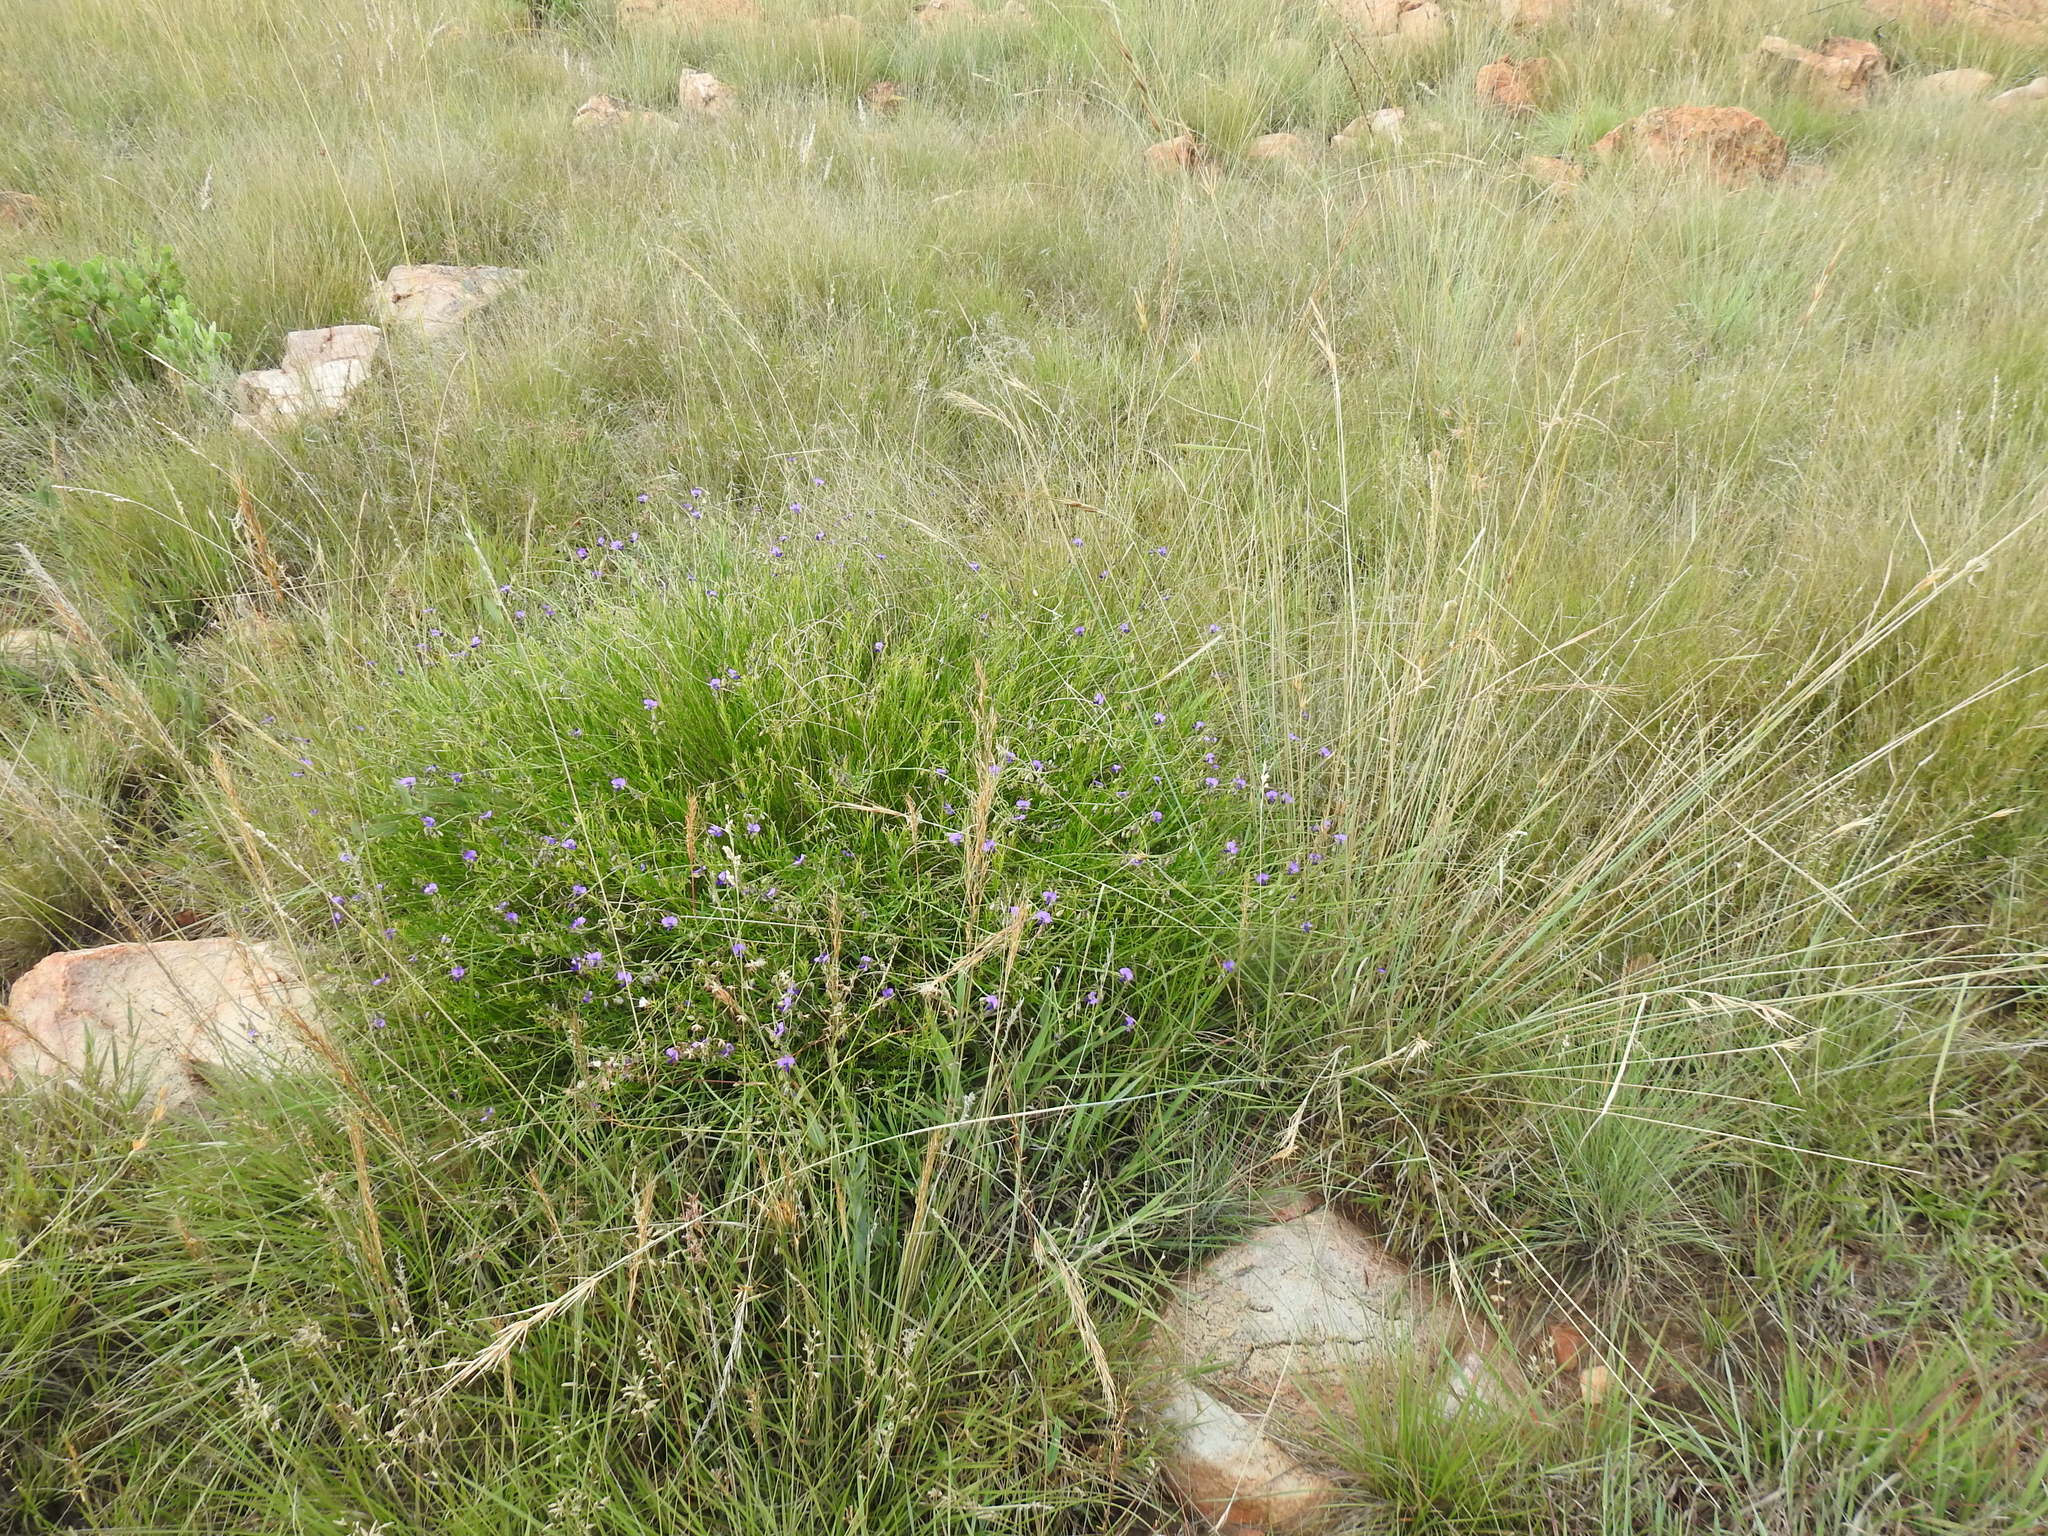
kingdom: Plantae
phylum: Tracheophyta
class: Magnoliopsida
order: Fabales
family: Polygalaceae
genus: Polygala
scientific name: Polygala uncinata
